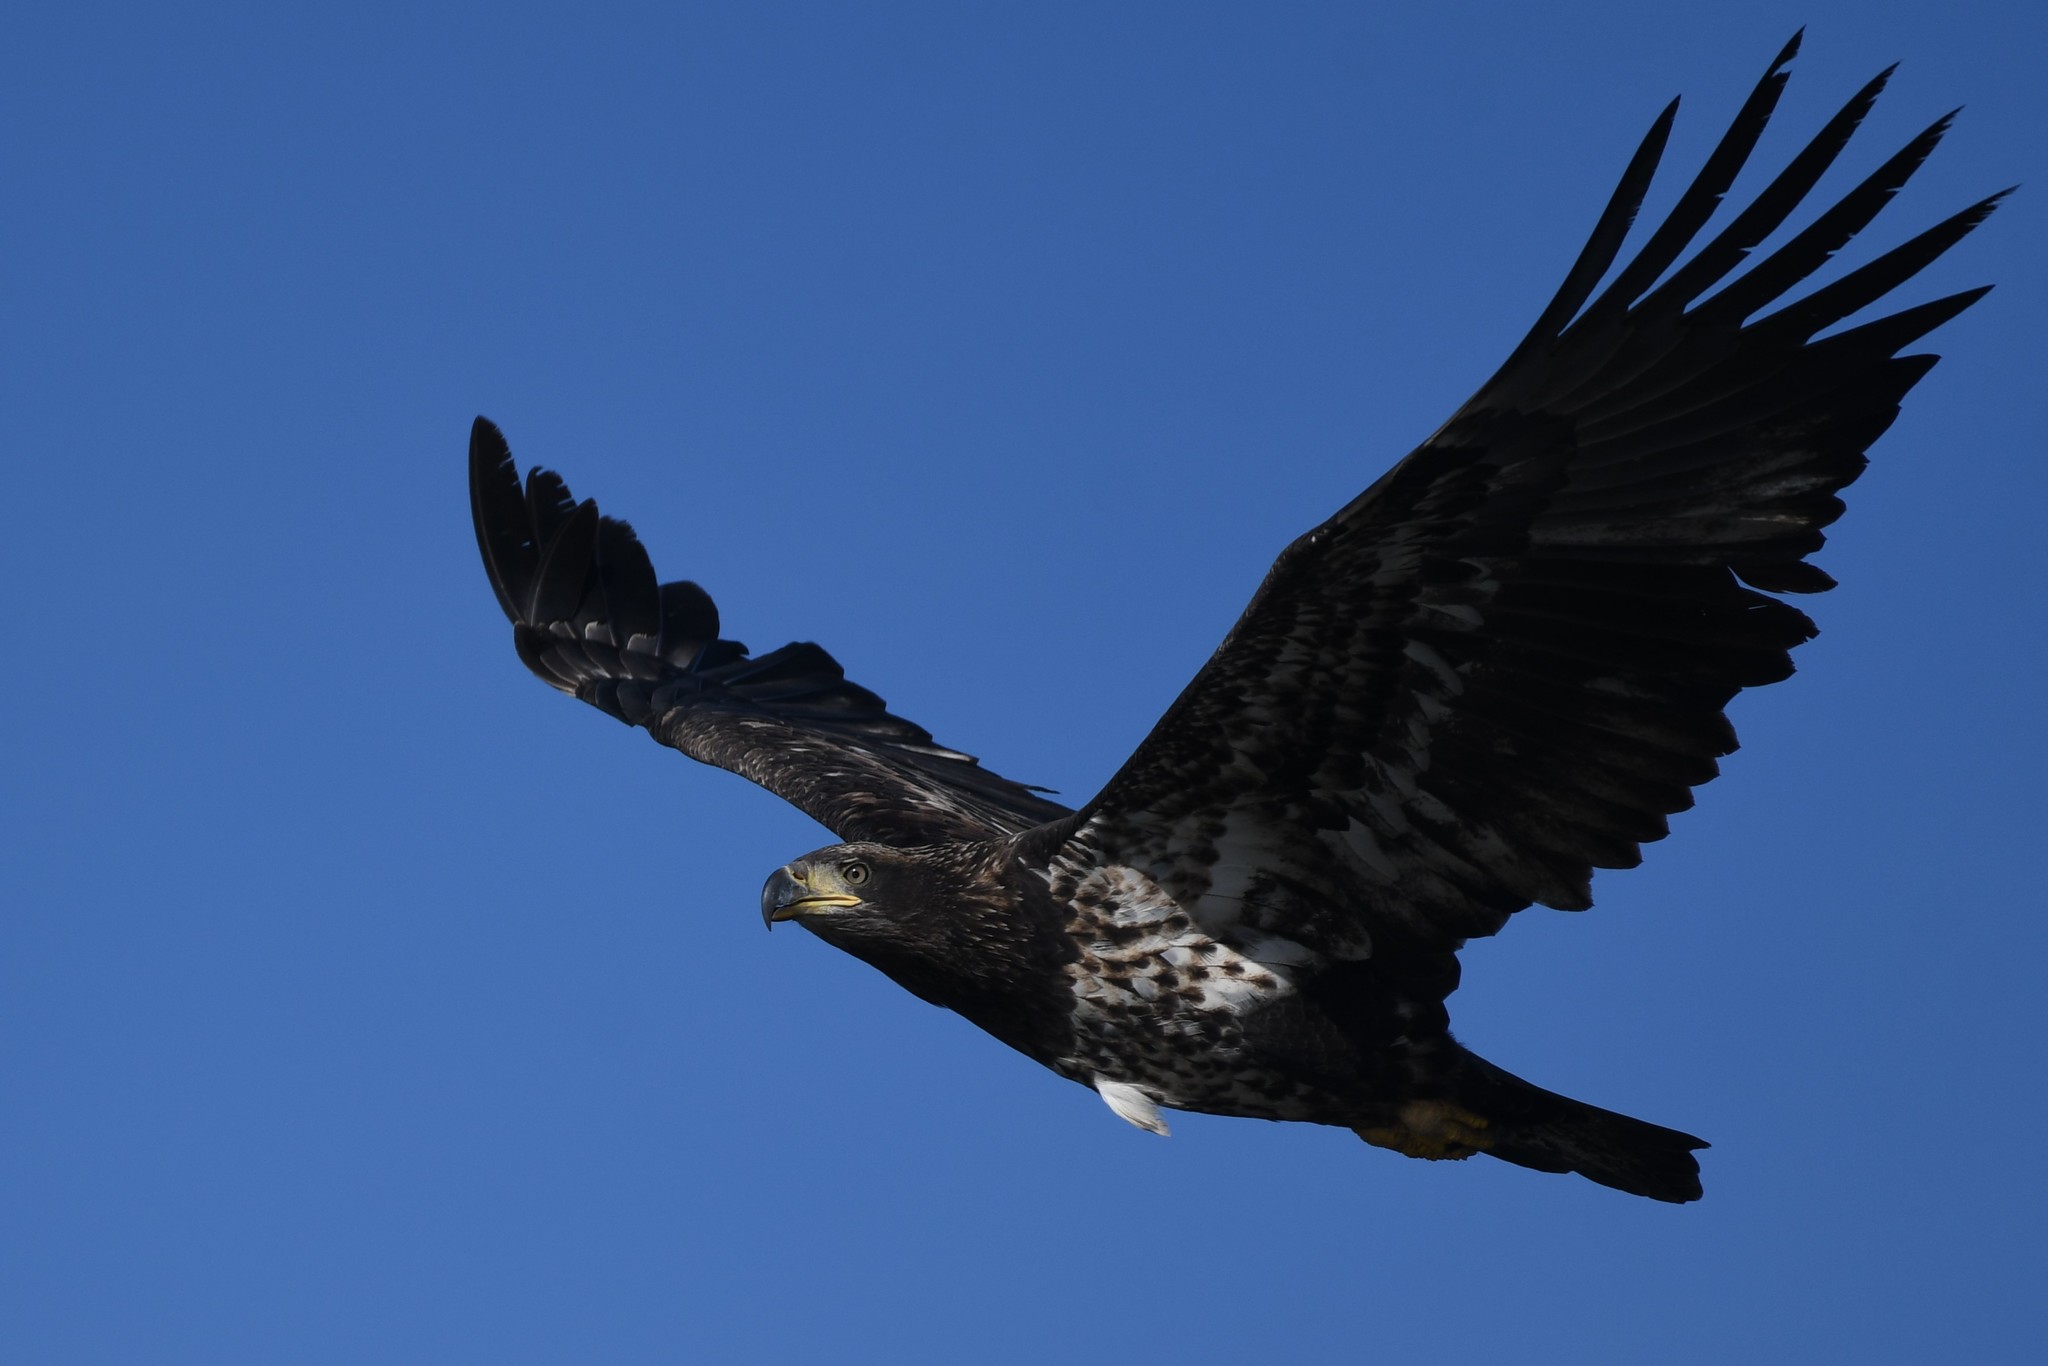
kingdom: Animalia
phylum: Chordata
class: Aves
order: Accipitriformes
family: Accipitridae
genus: Haliaeetus
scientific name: Haliaeetus leucocephalus
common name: Bald eagle
